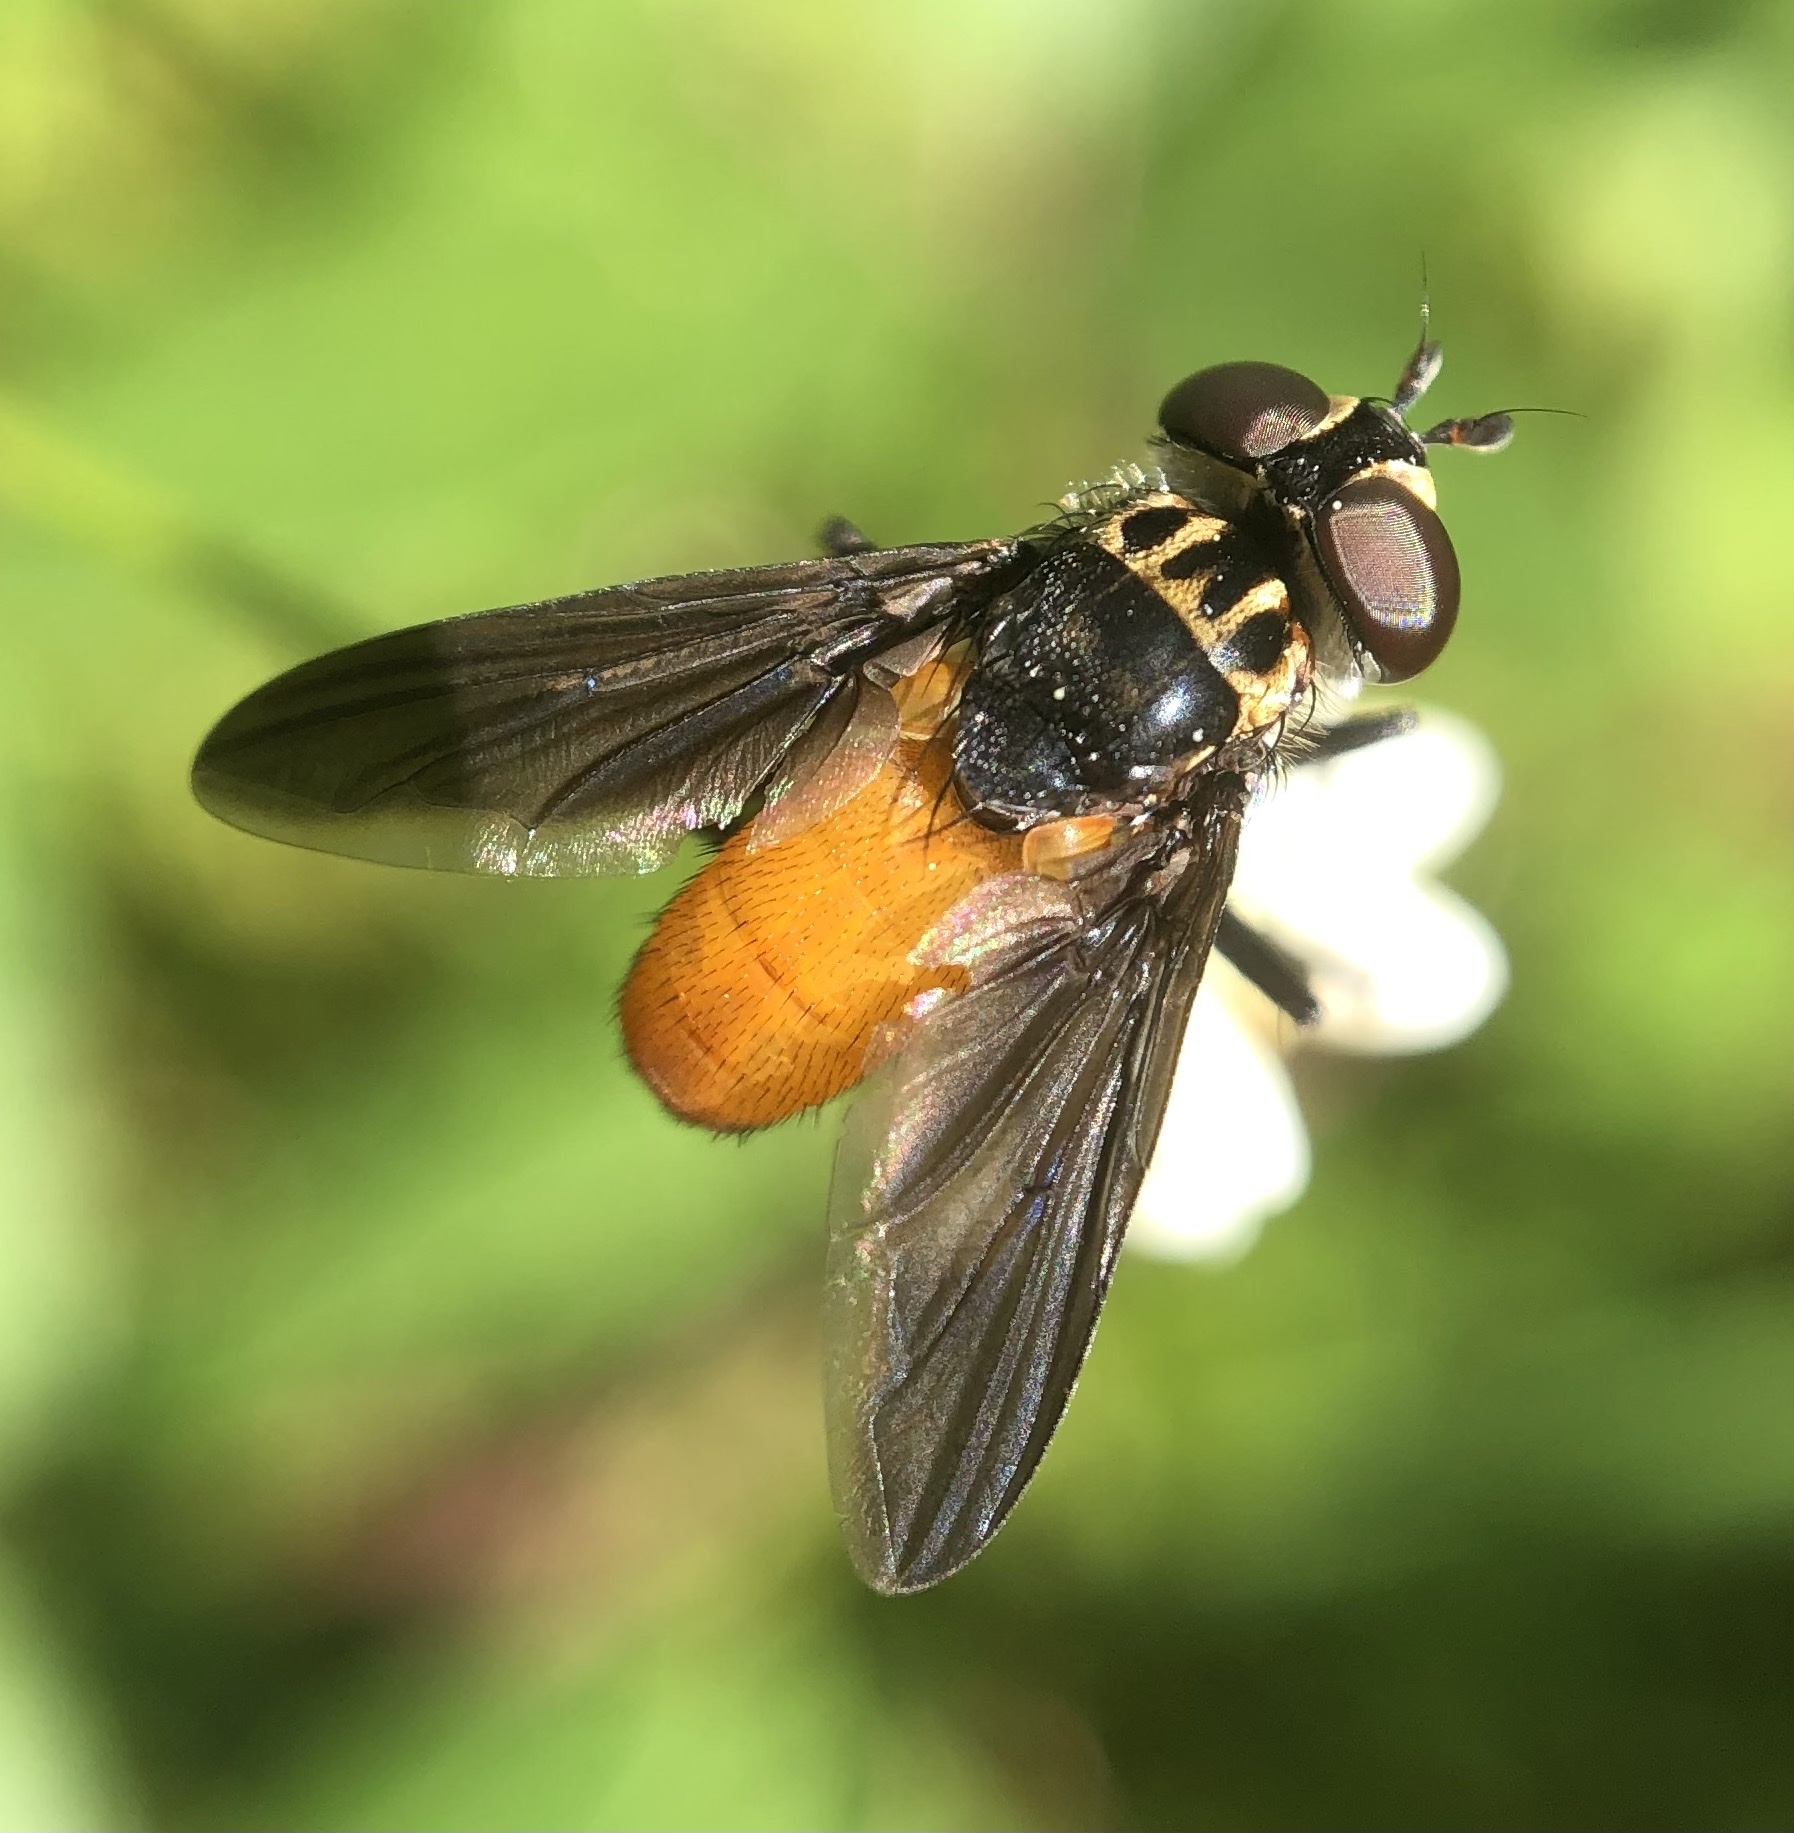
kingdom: Animalia
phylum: Arthropoda
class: Insecta
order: Diptera
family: Tachinidae
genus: Trichopoda
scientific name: Trichopoda pennipes
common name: Tachinid fly
